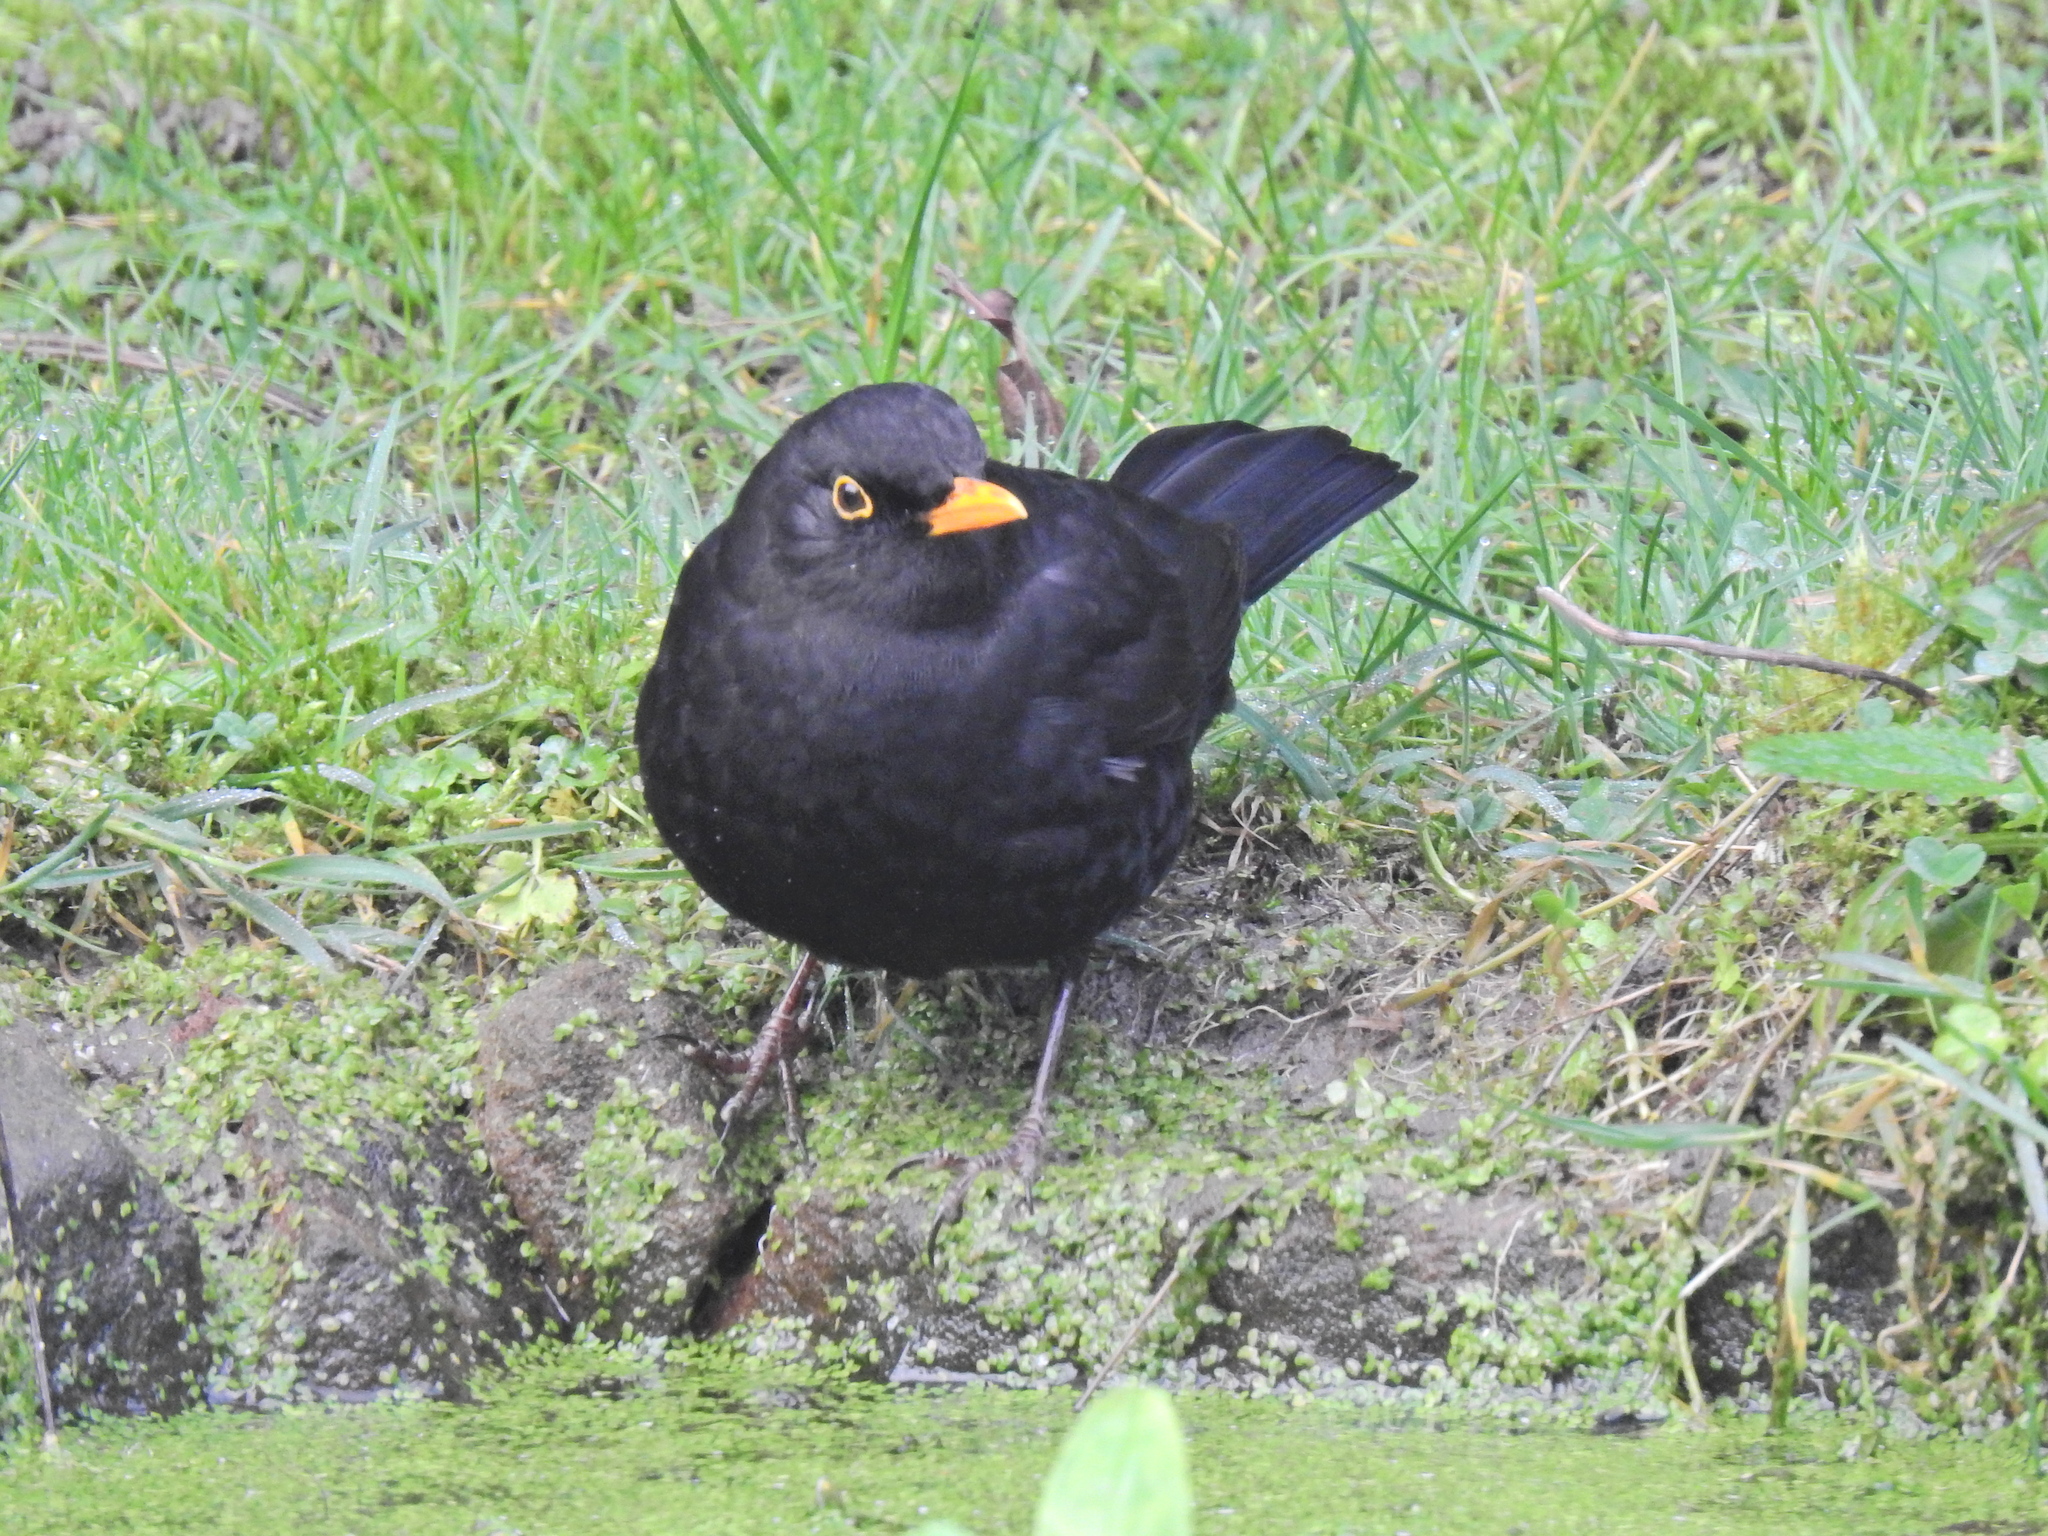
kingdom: Animalia
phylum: Chordata
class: Aves
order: Passeriformes
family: Turdidae
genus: Turdus
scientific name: Turdus merula
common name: Common blackbird
